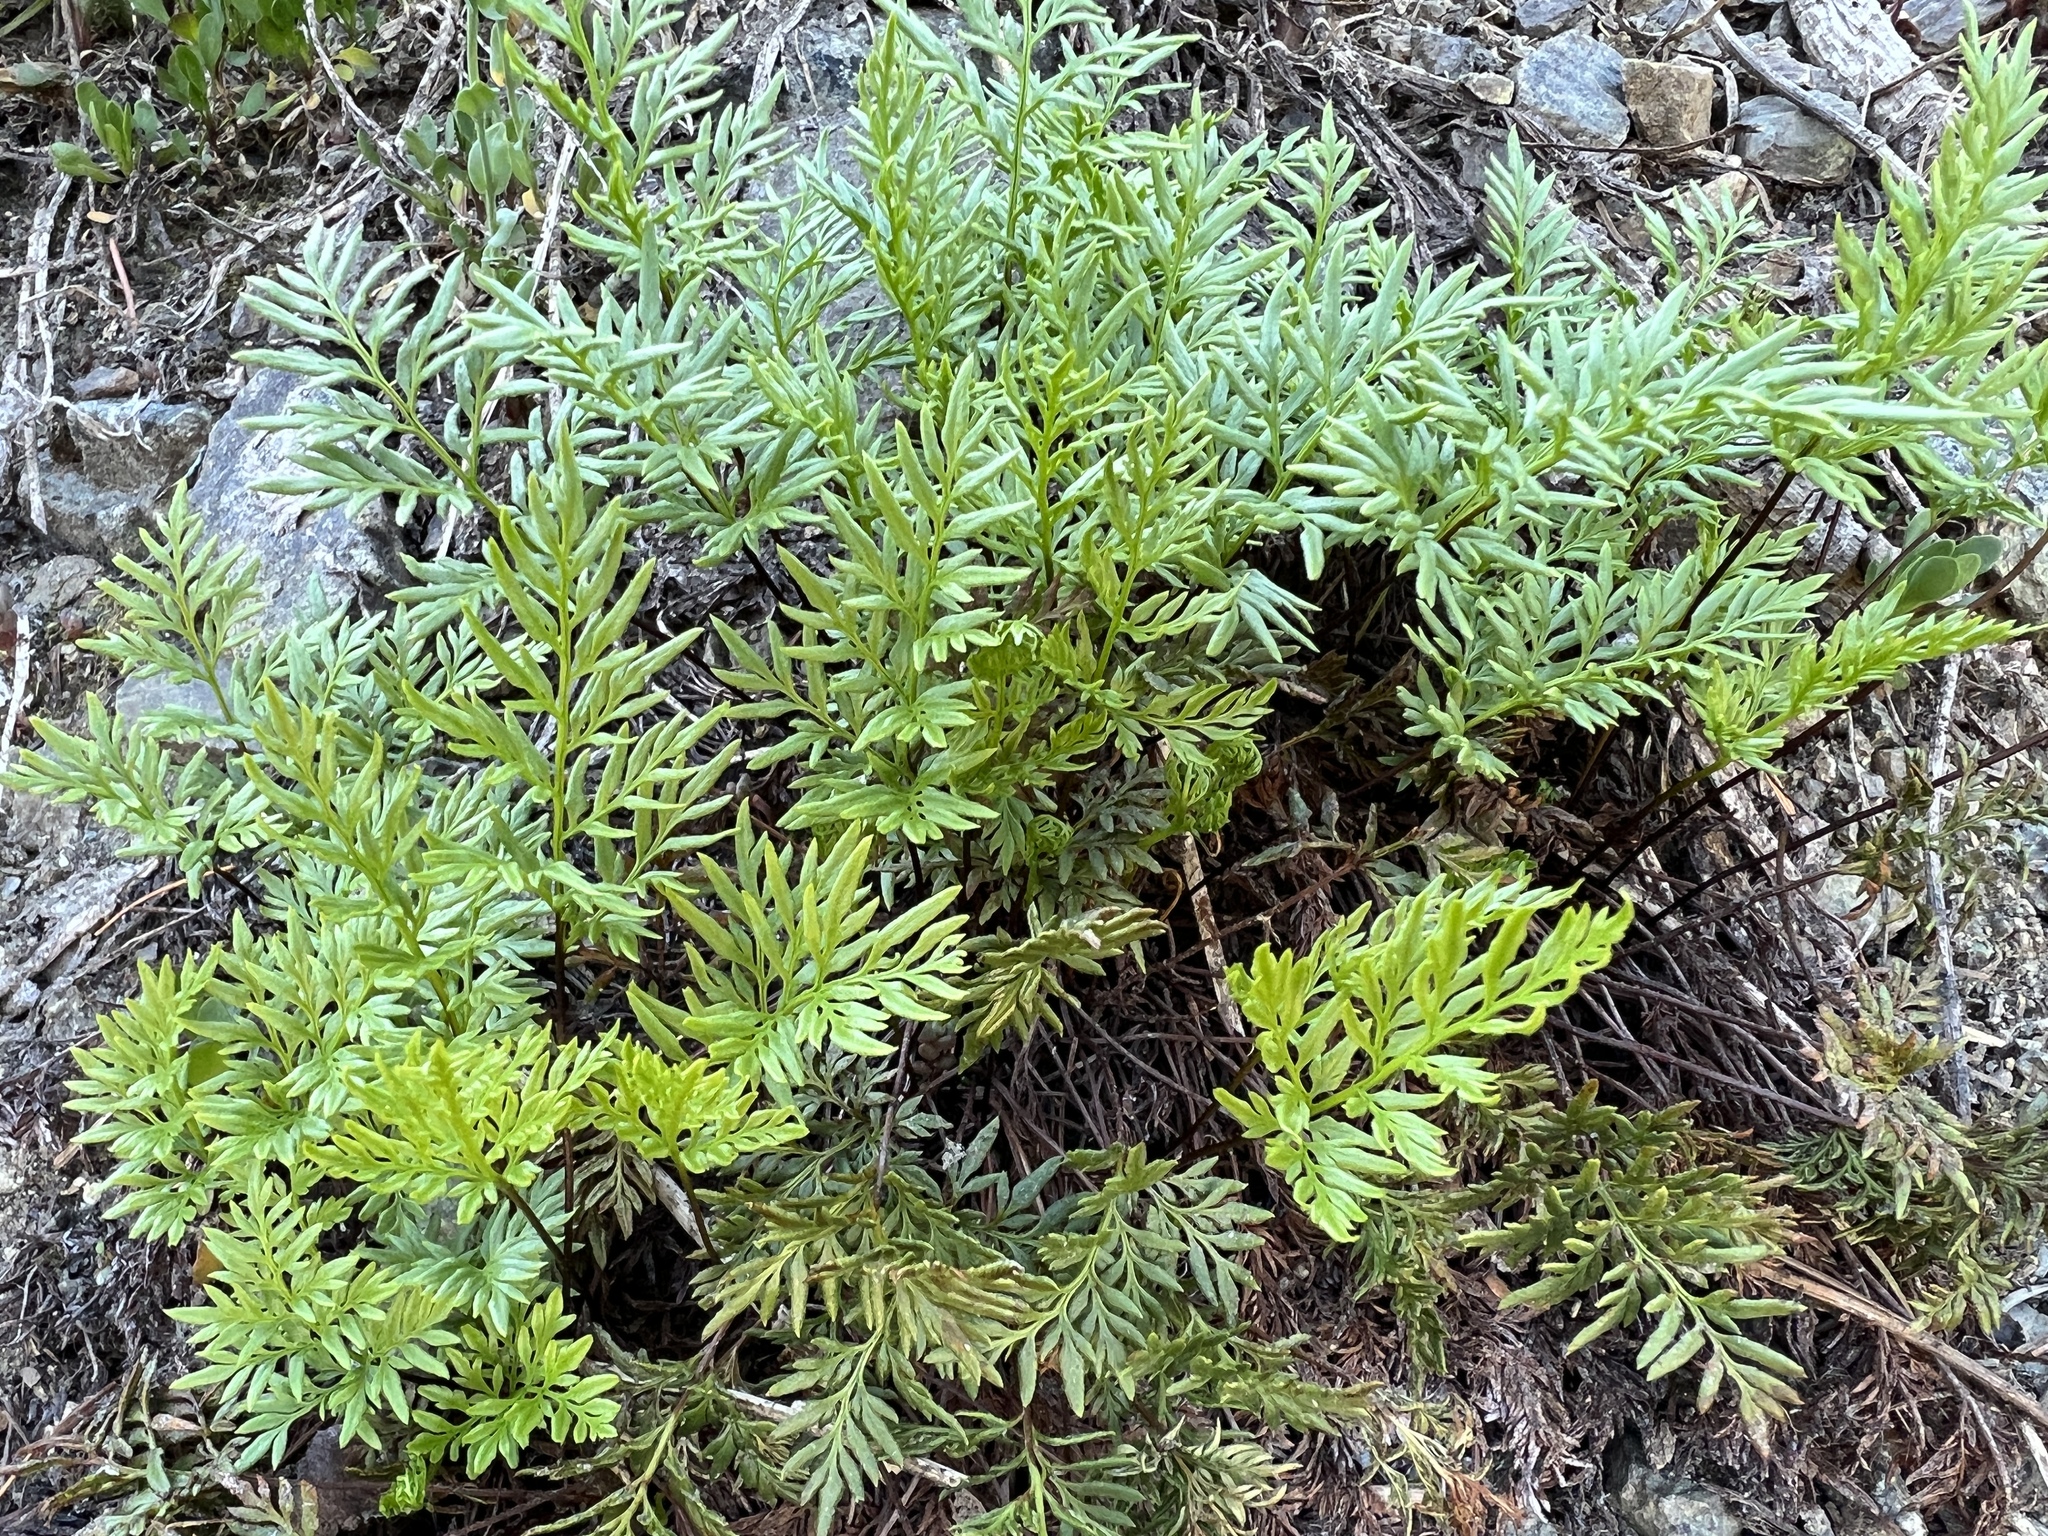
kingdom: Plantae
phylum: Tracheophyta
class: Polypodiopsida
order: Polypodiales
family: Pteridaceae
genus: Aspidotis
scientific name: Aspidotis densa
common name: Indian's dream
